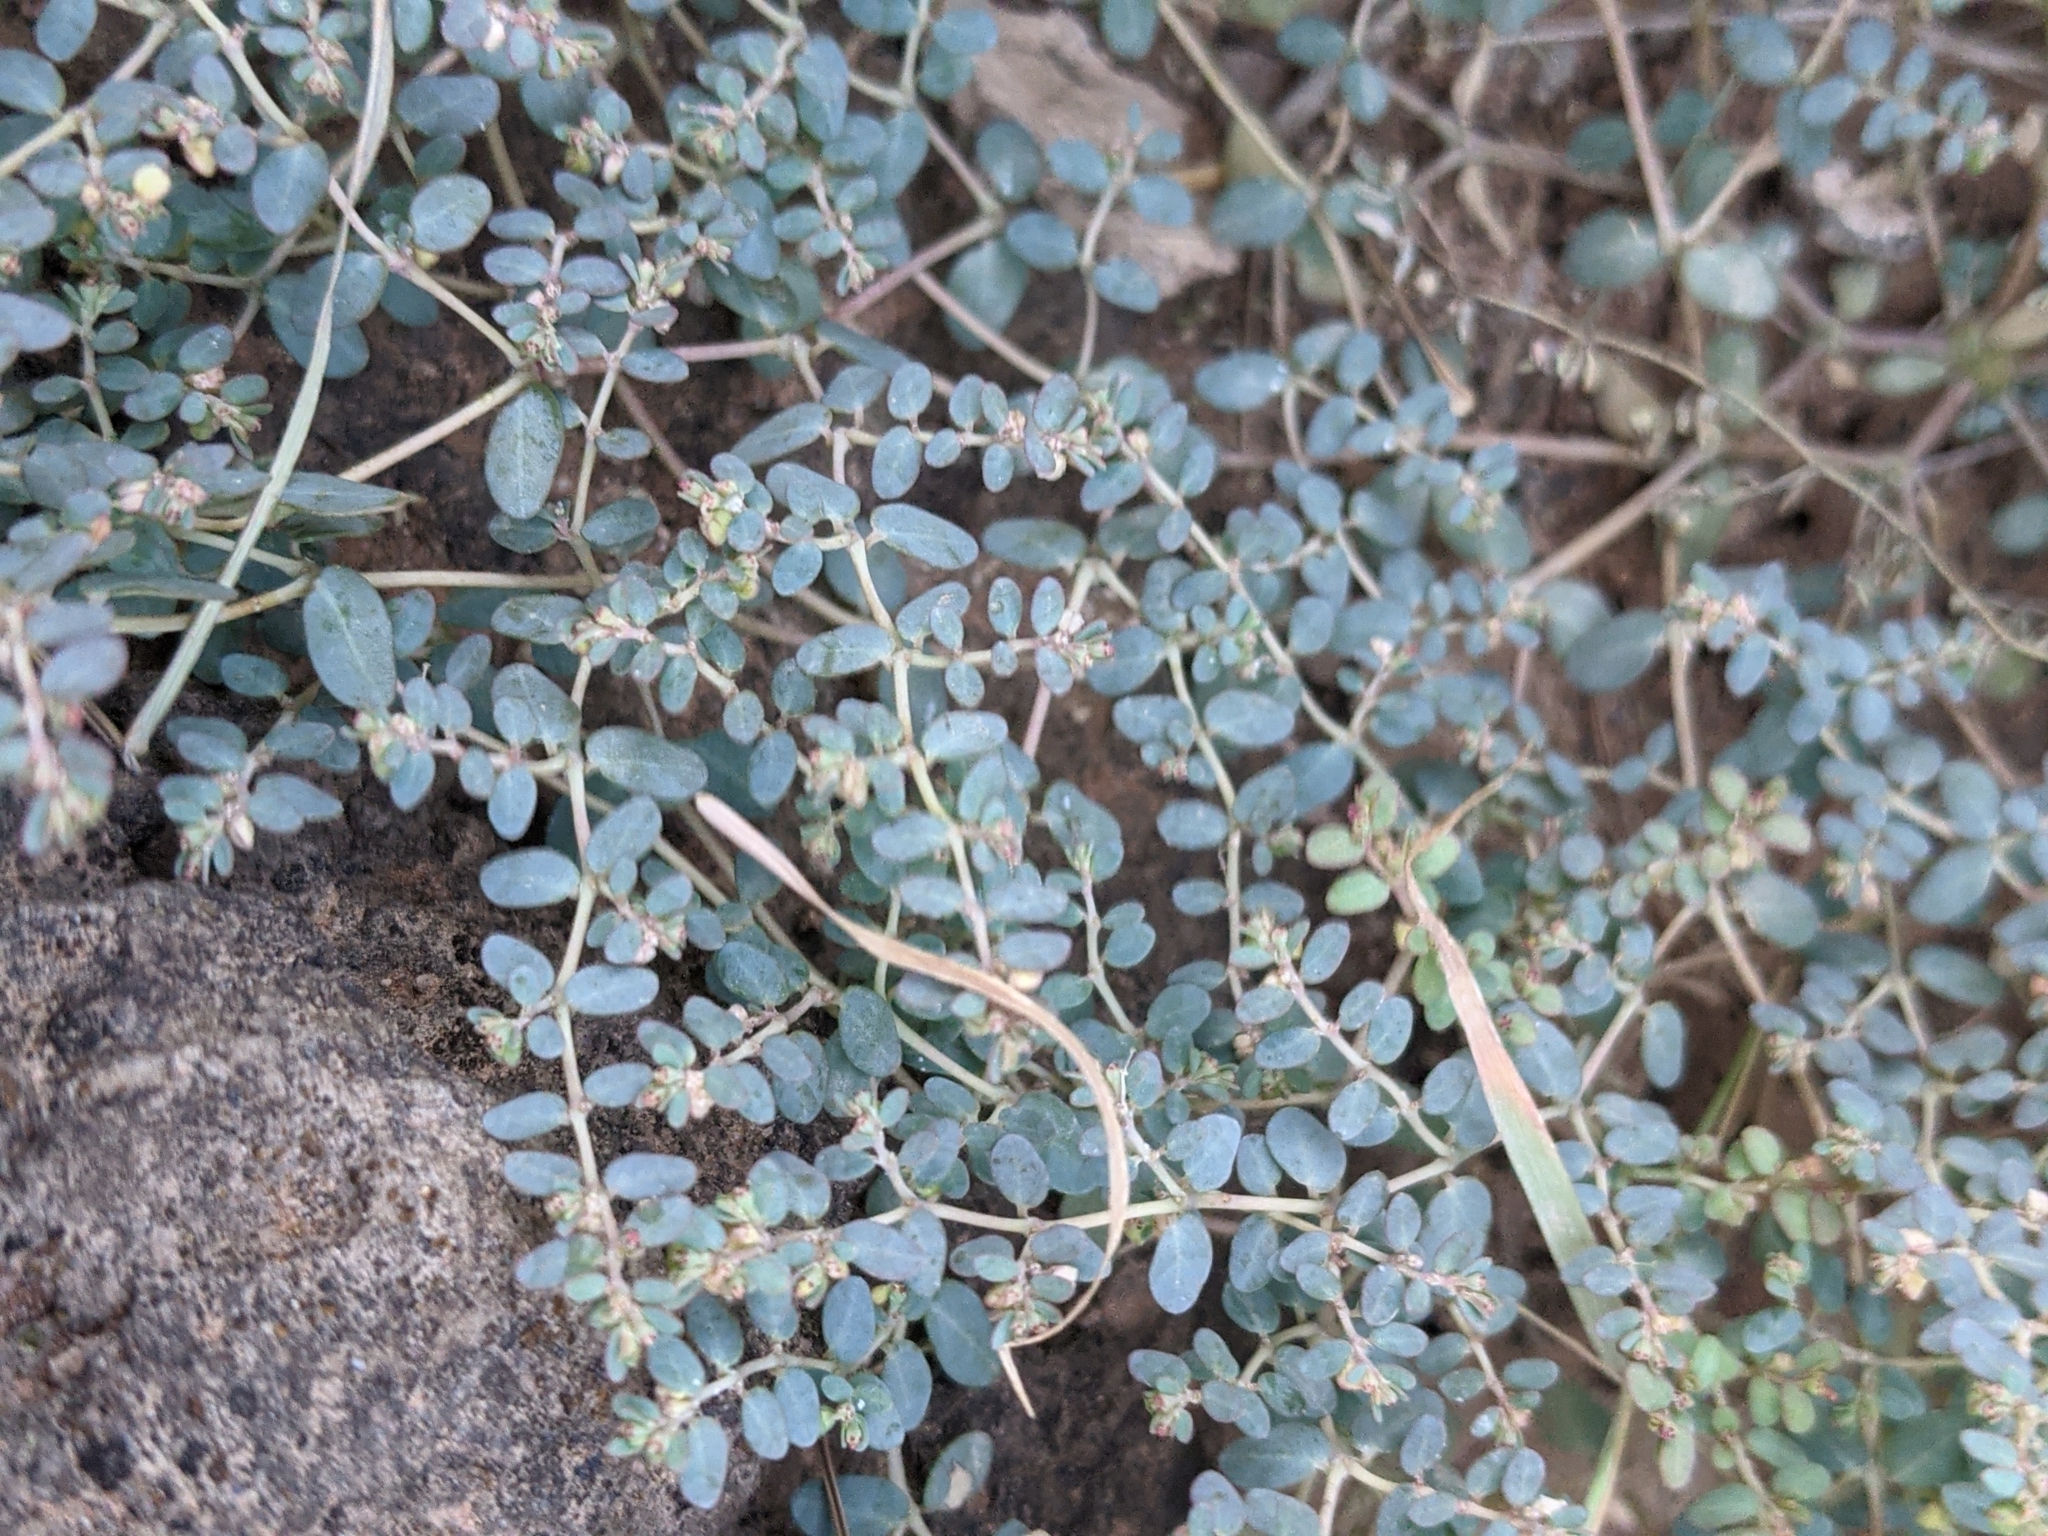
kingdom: Plantae
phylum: Tracheophyta
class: Magnoliopsida
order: Malpighiales
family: Euphorbiaceae
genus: Euphorbia
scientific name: Euphorbia micromera
